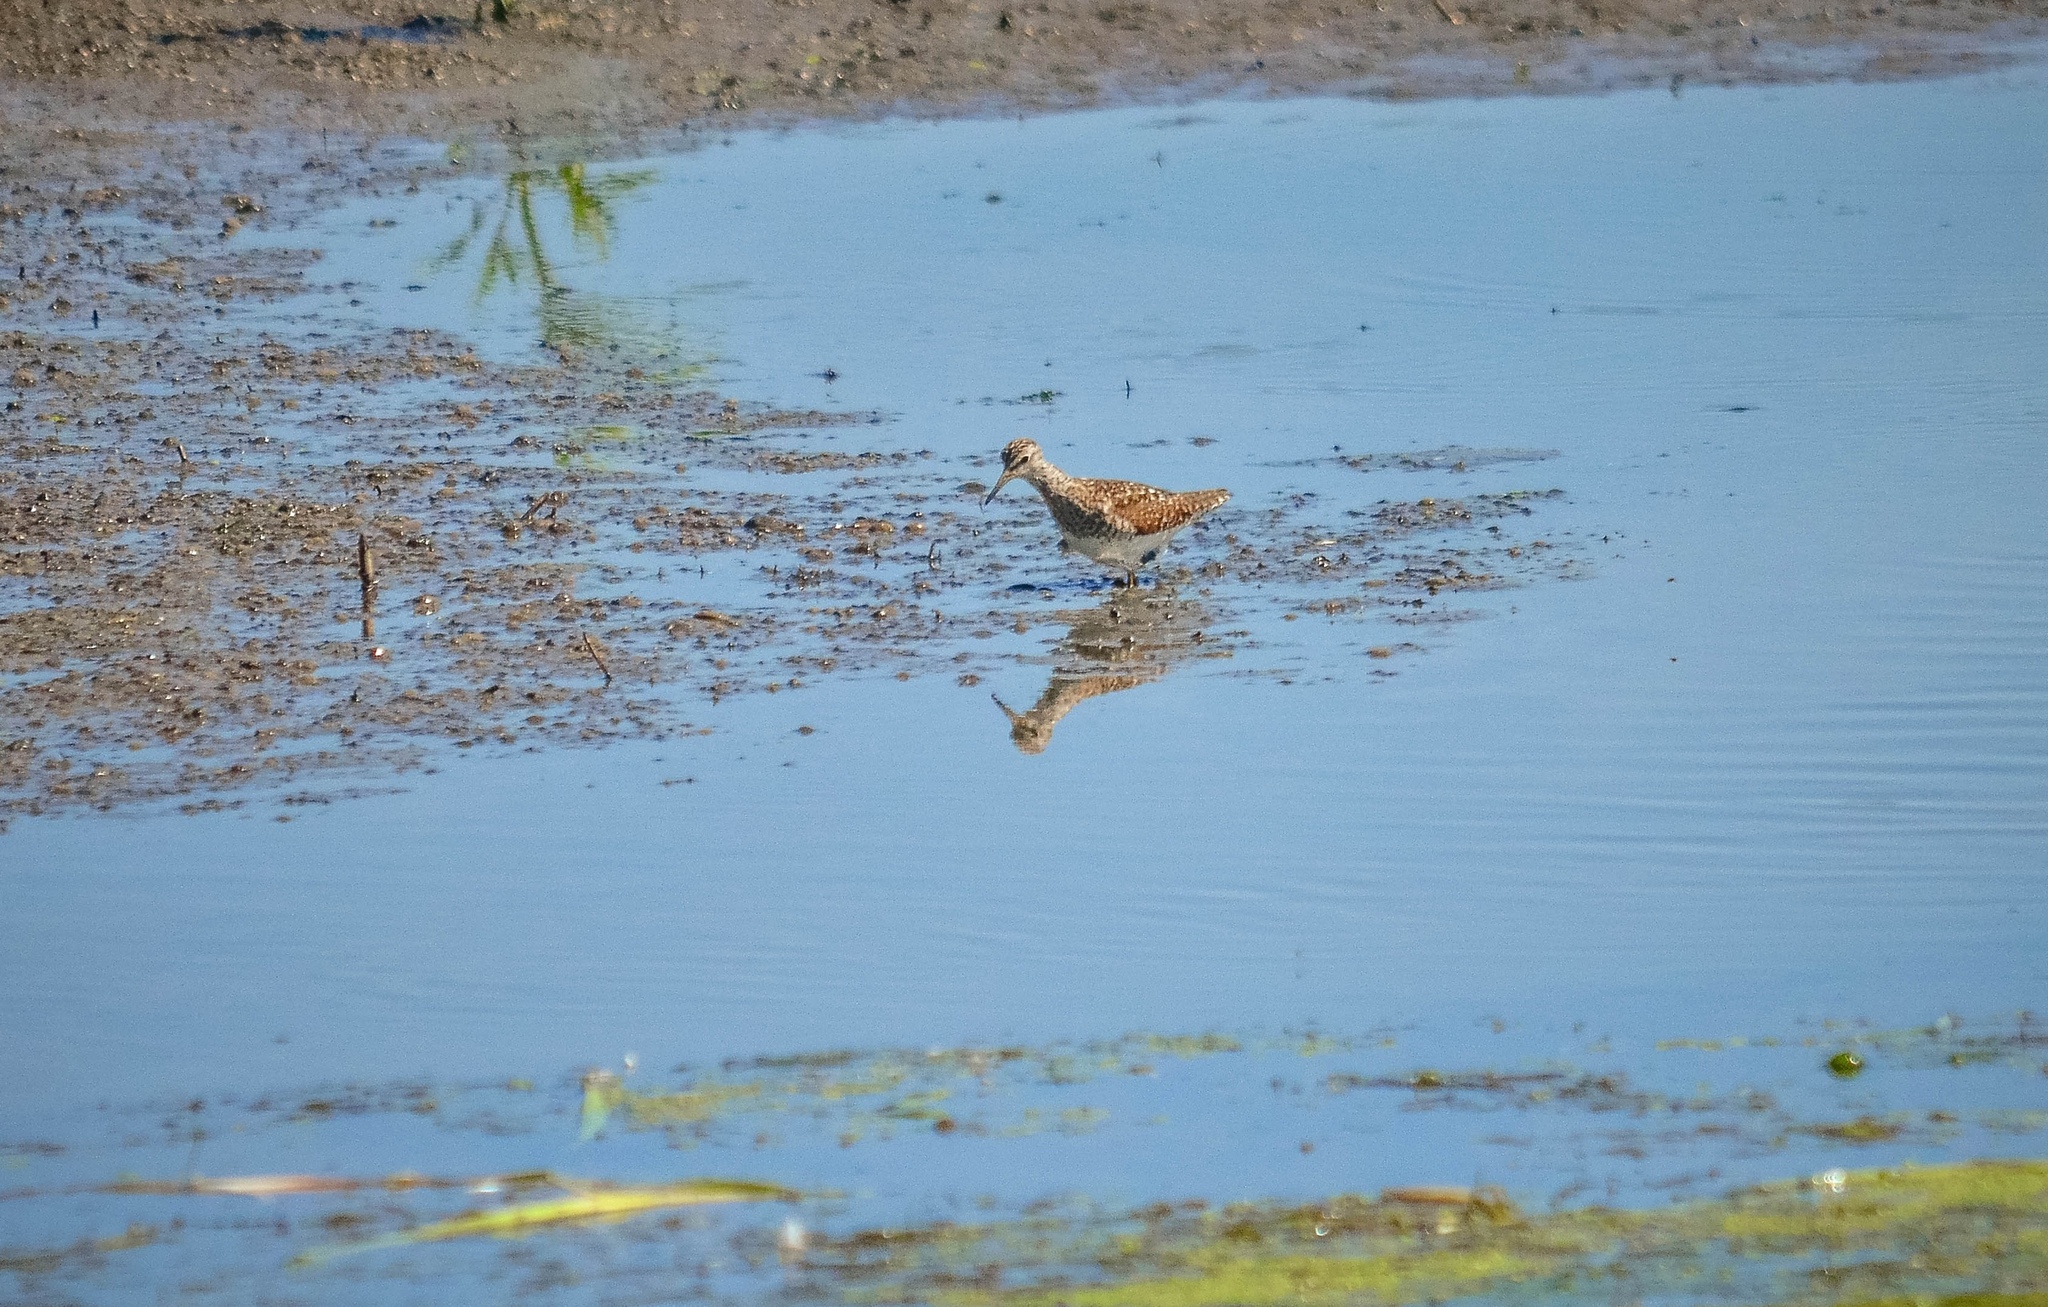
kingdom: Animalia
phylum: Chordata
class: Aves
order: Charadriiformes
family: Scolopacidae
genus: Tringa
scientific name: Tringa glareola
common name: Wood sandpiper
